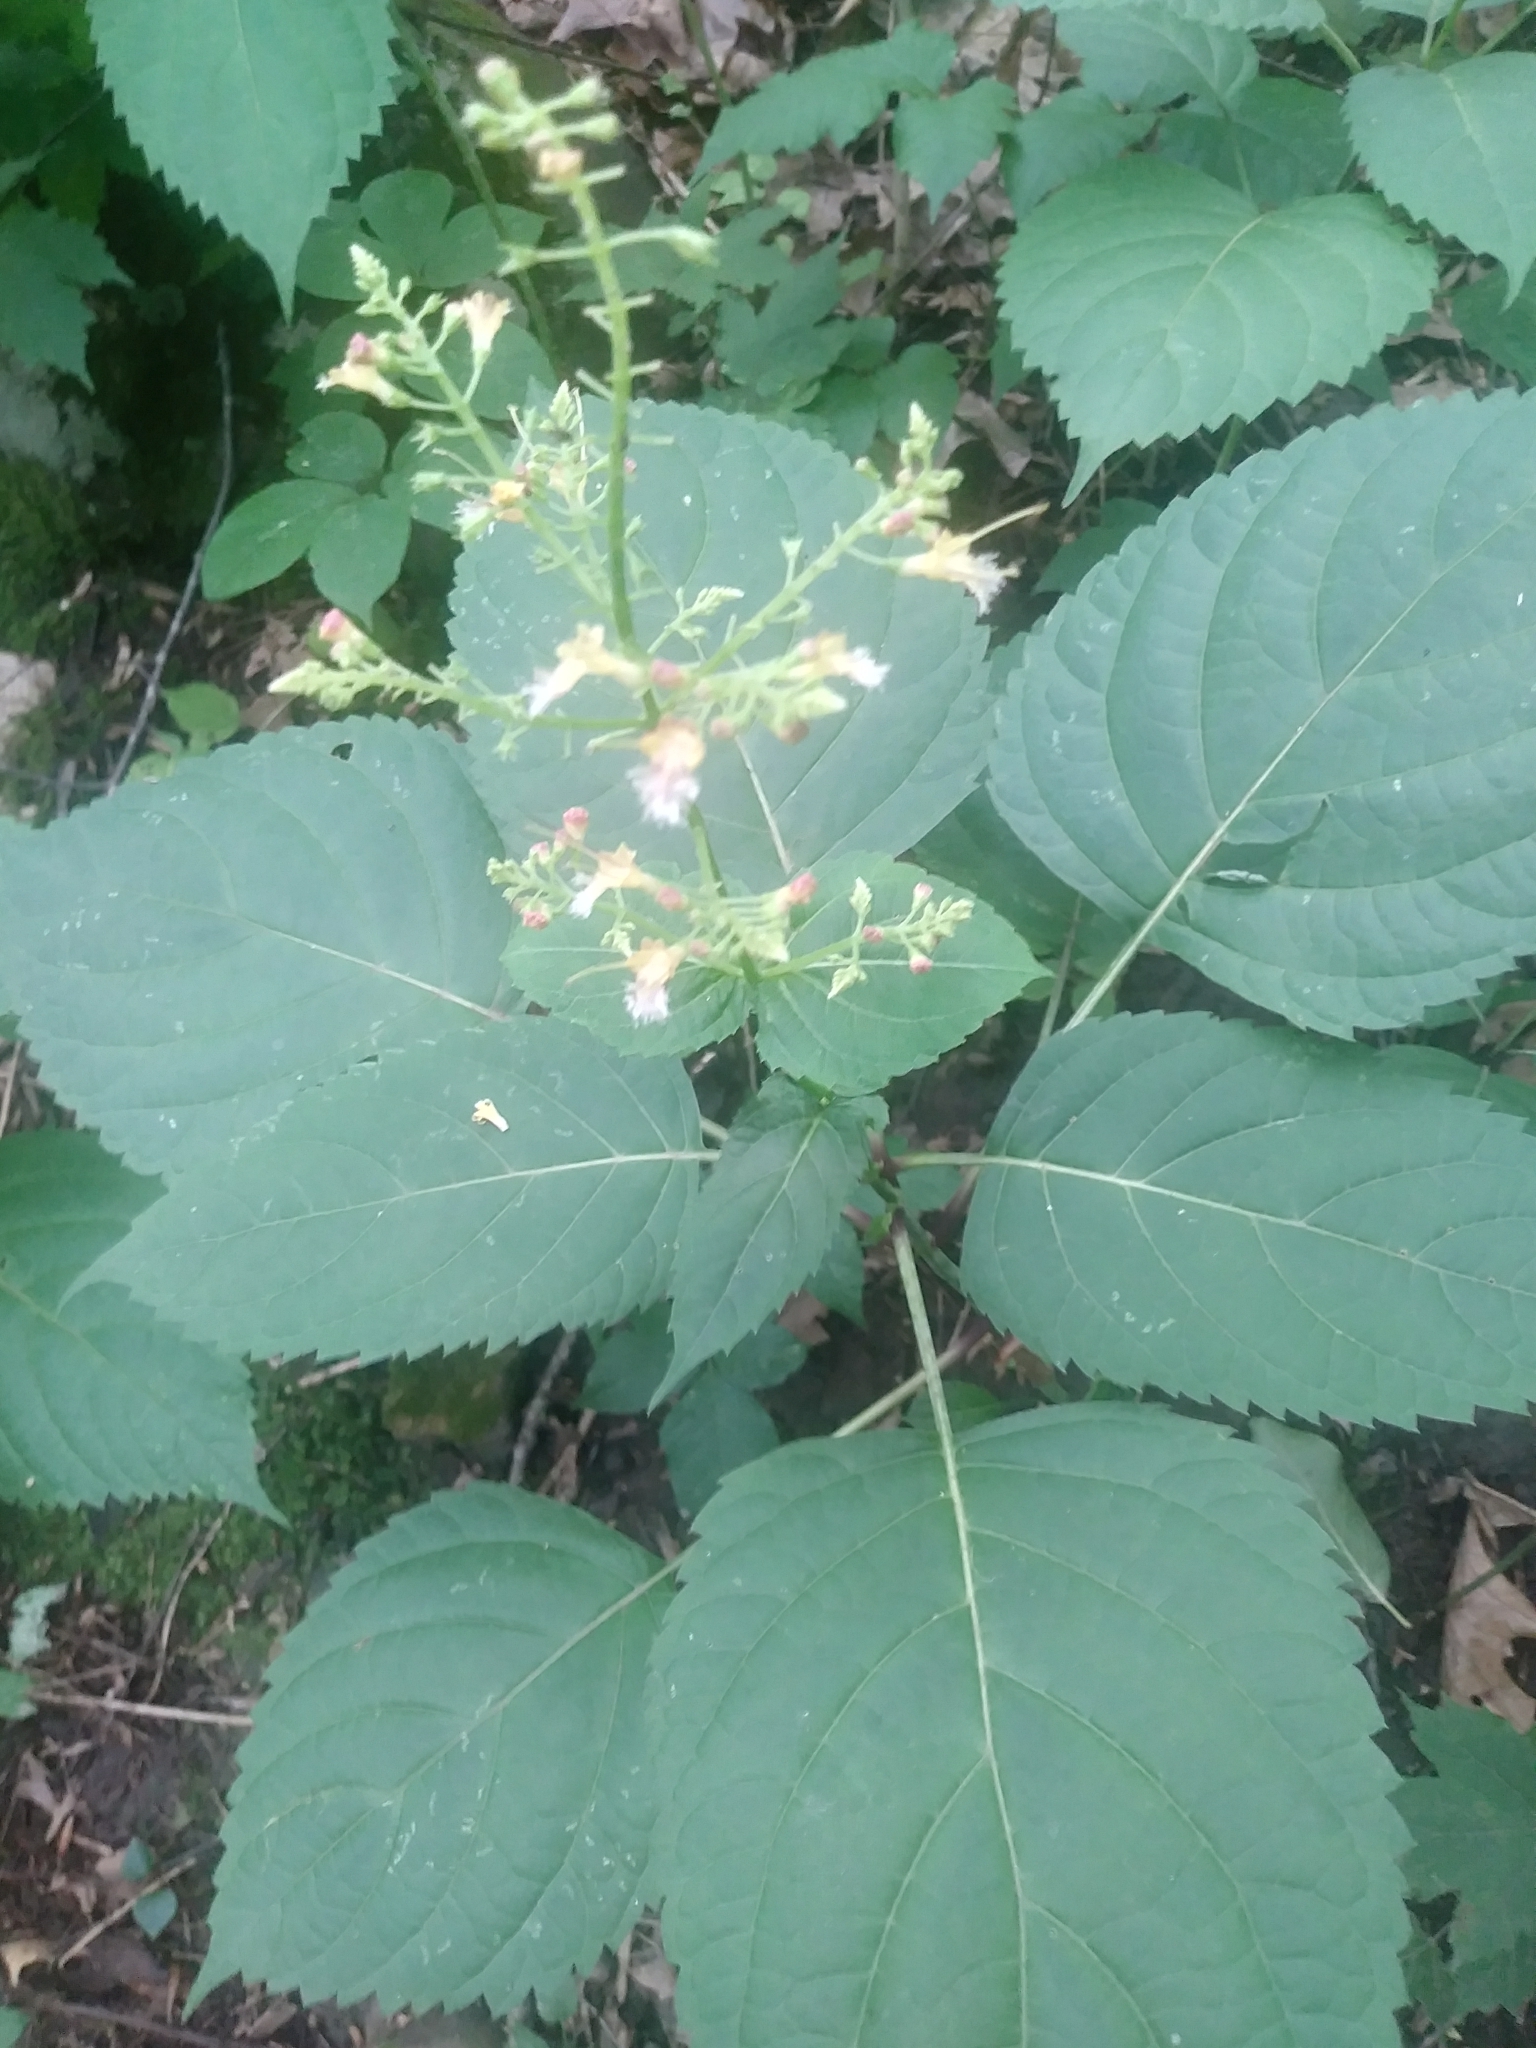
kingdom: Plantae
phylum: Tracheophyta
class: Magnoliopsida
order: Lamiales
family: Lamiaceae
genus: Collinsonia
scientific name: Collinsonia canadensis
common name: Northern horsebalm
